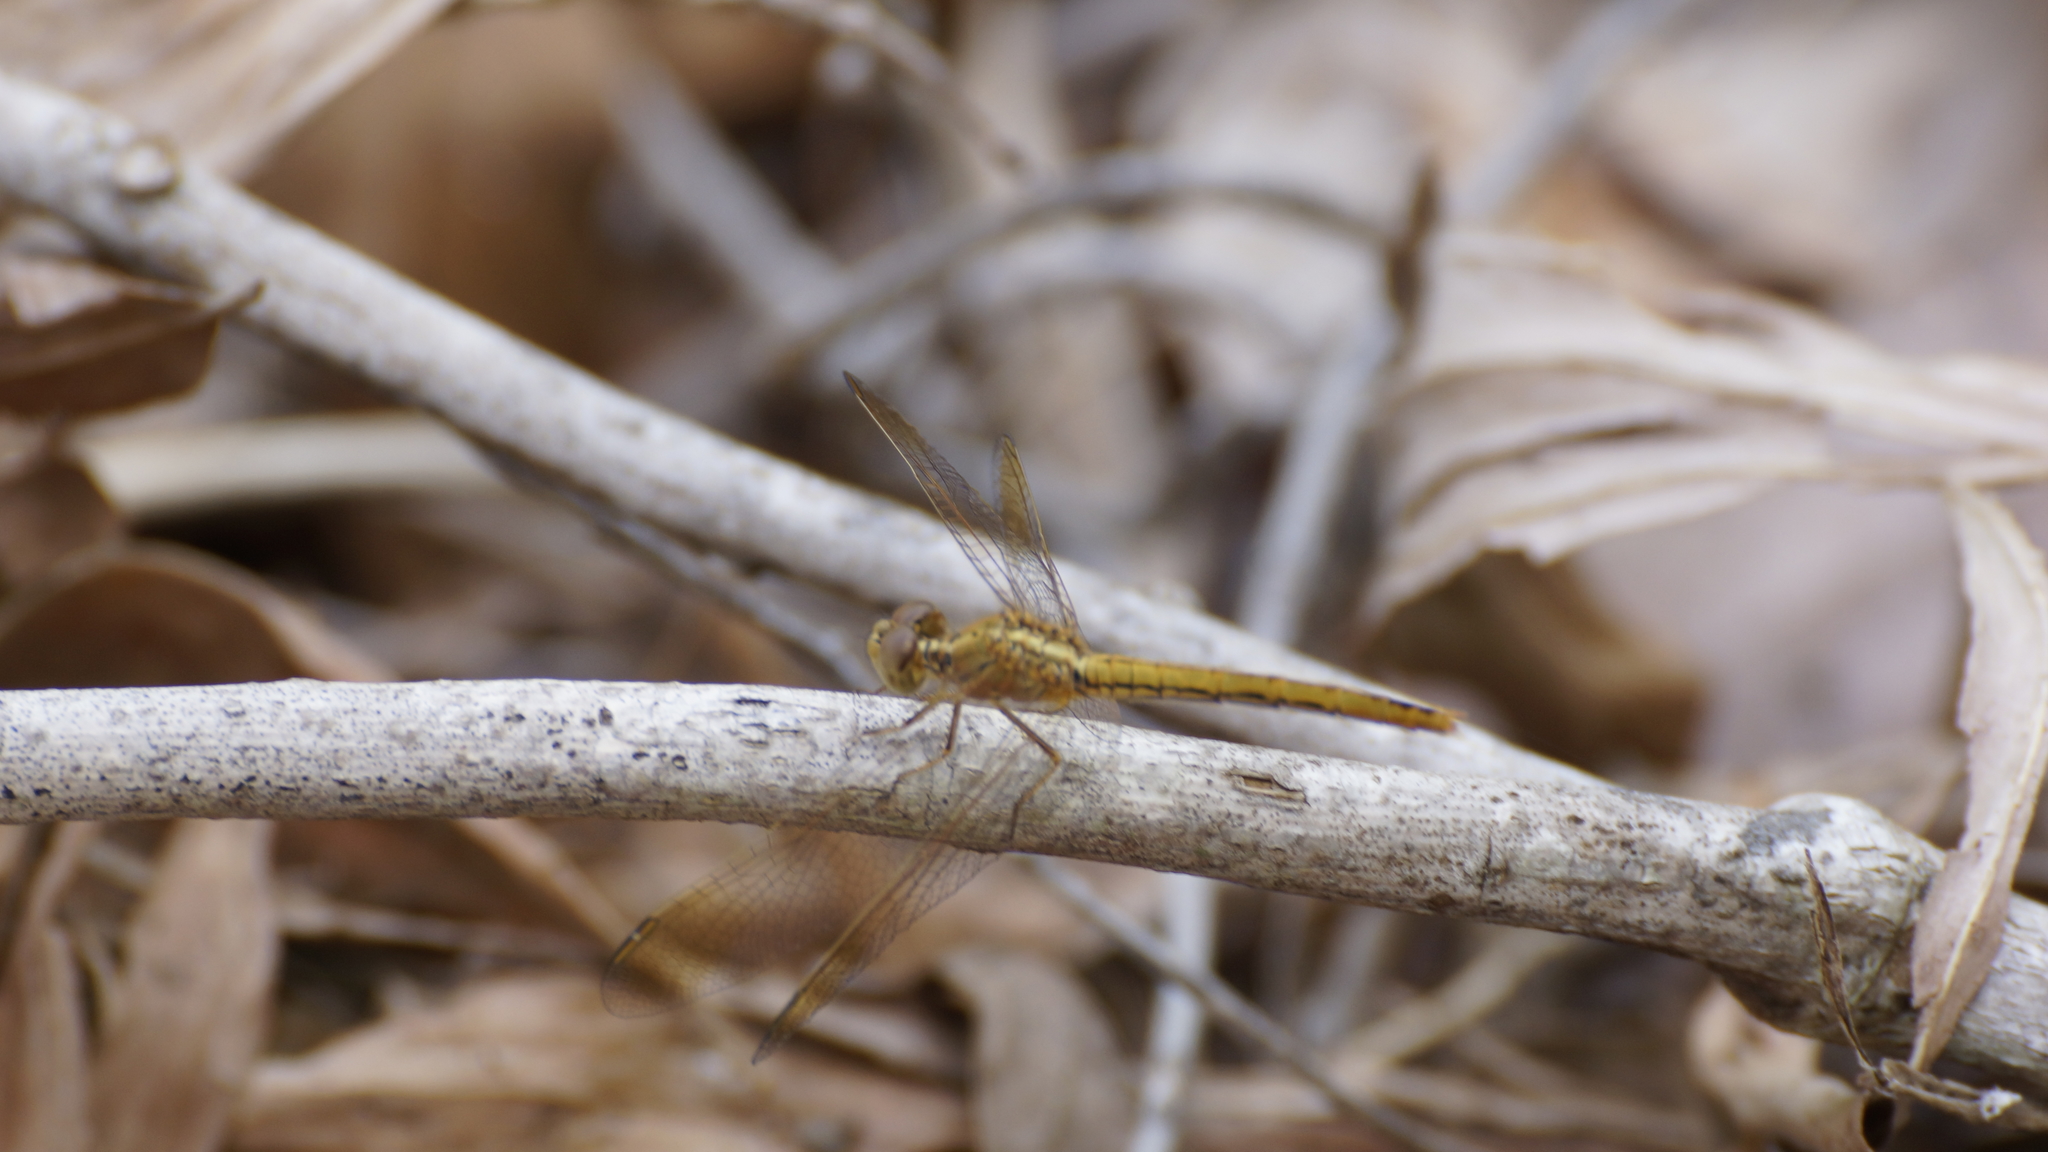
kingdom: Animalia
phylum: Arthropoda
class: Insecta
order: Odonata
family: Libellulidae
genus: Diplacodes
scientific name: Diplacodes haematodes
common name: Scarlet percher
